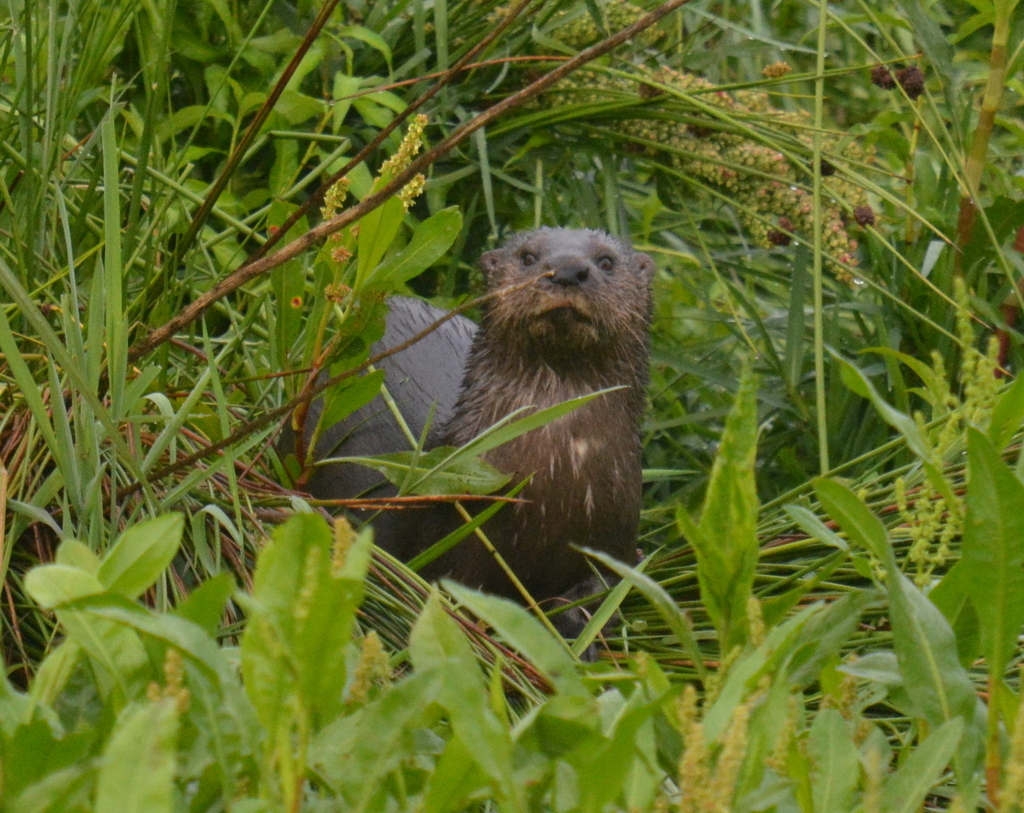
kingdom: Animalia
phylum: Chordata
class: Mammalia
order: Carnivora
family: Mustelidae
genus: Hydrictis
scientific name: Hydrictis maculicollis
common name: Spotted-necked otter
